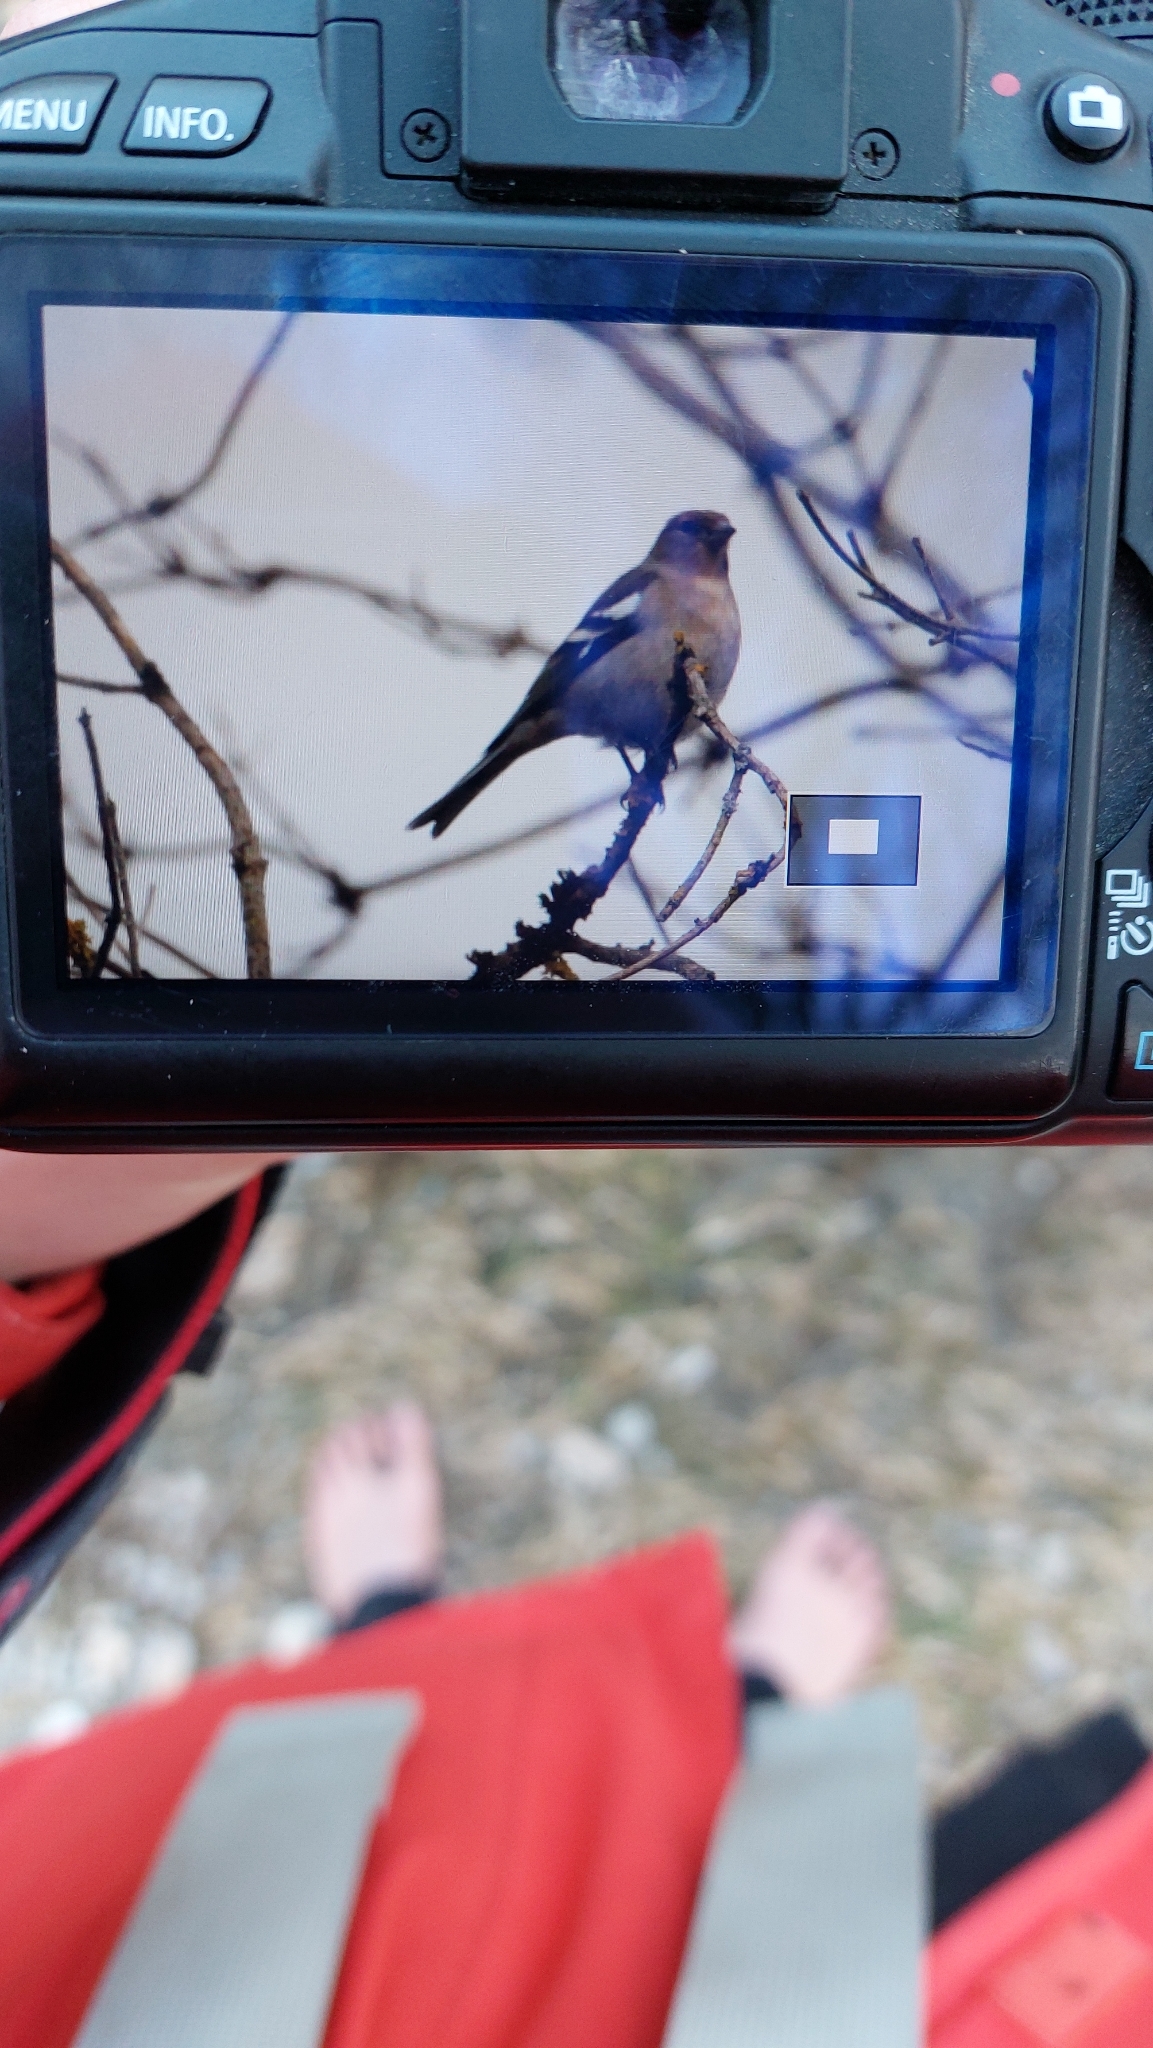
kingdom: Animalia
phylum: Chordata
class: Aves
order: Passeriformes
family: Fringillidae
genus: Fringilla
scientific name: Fringilla coelebs
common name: Common chaffinch
